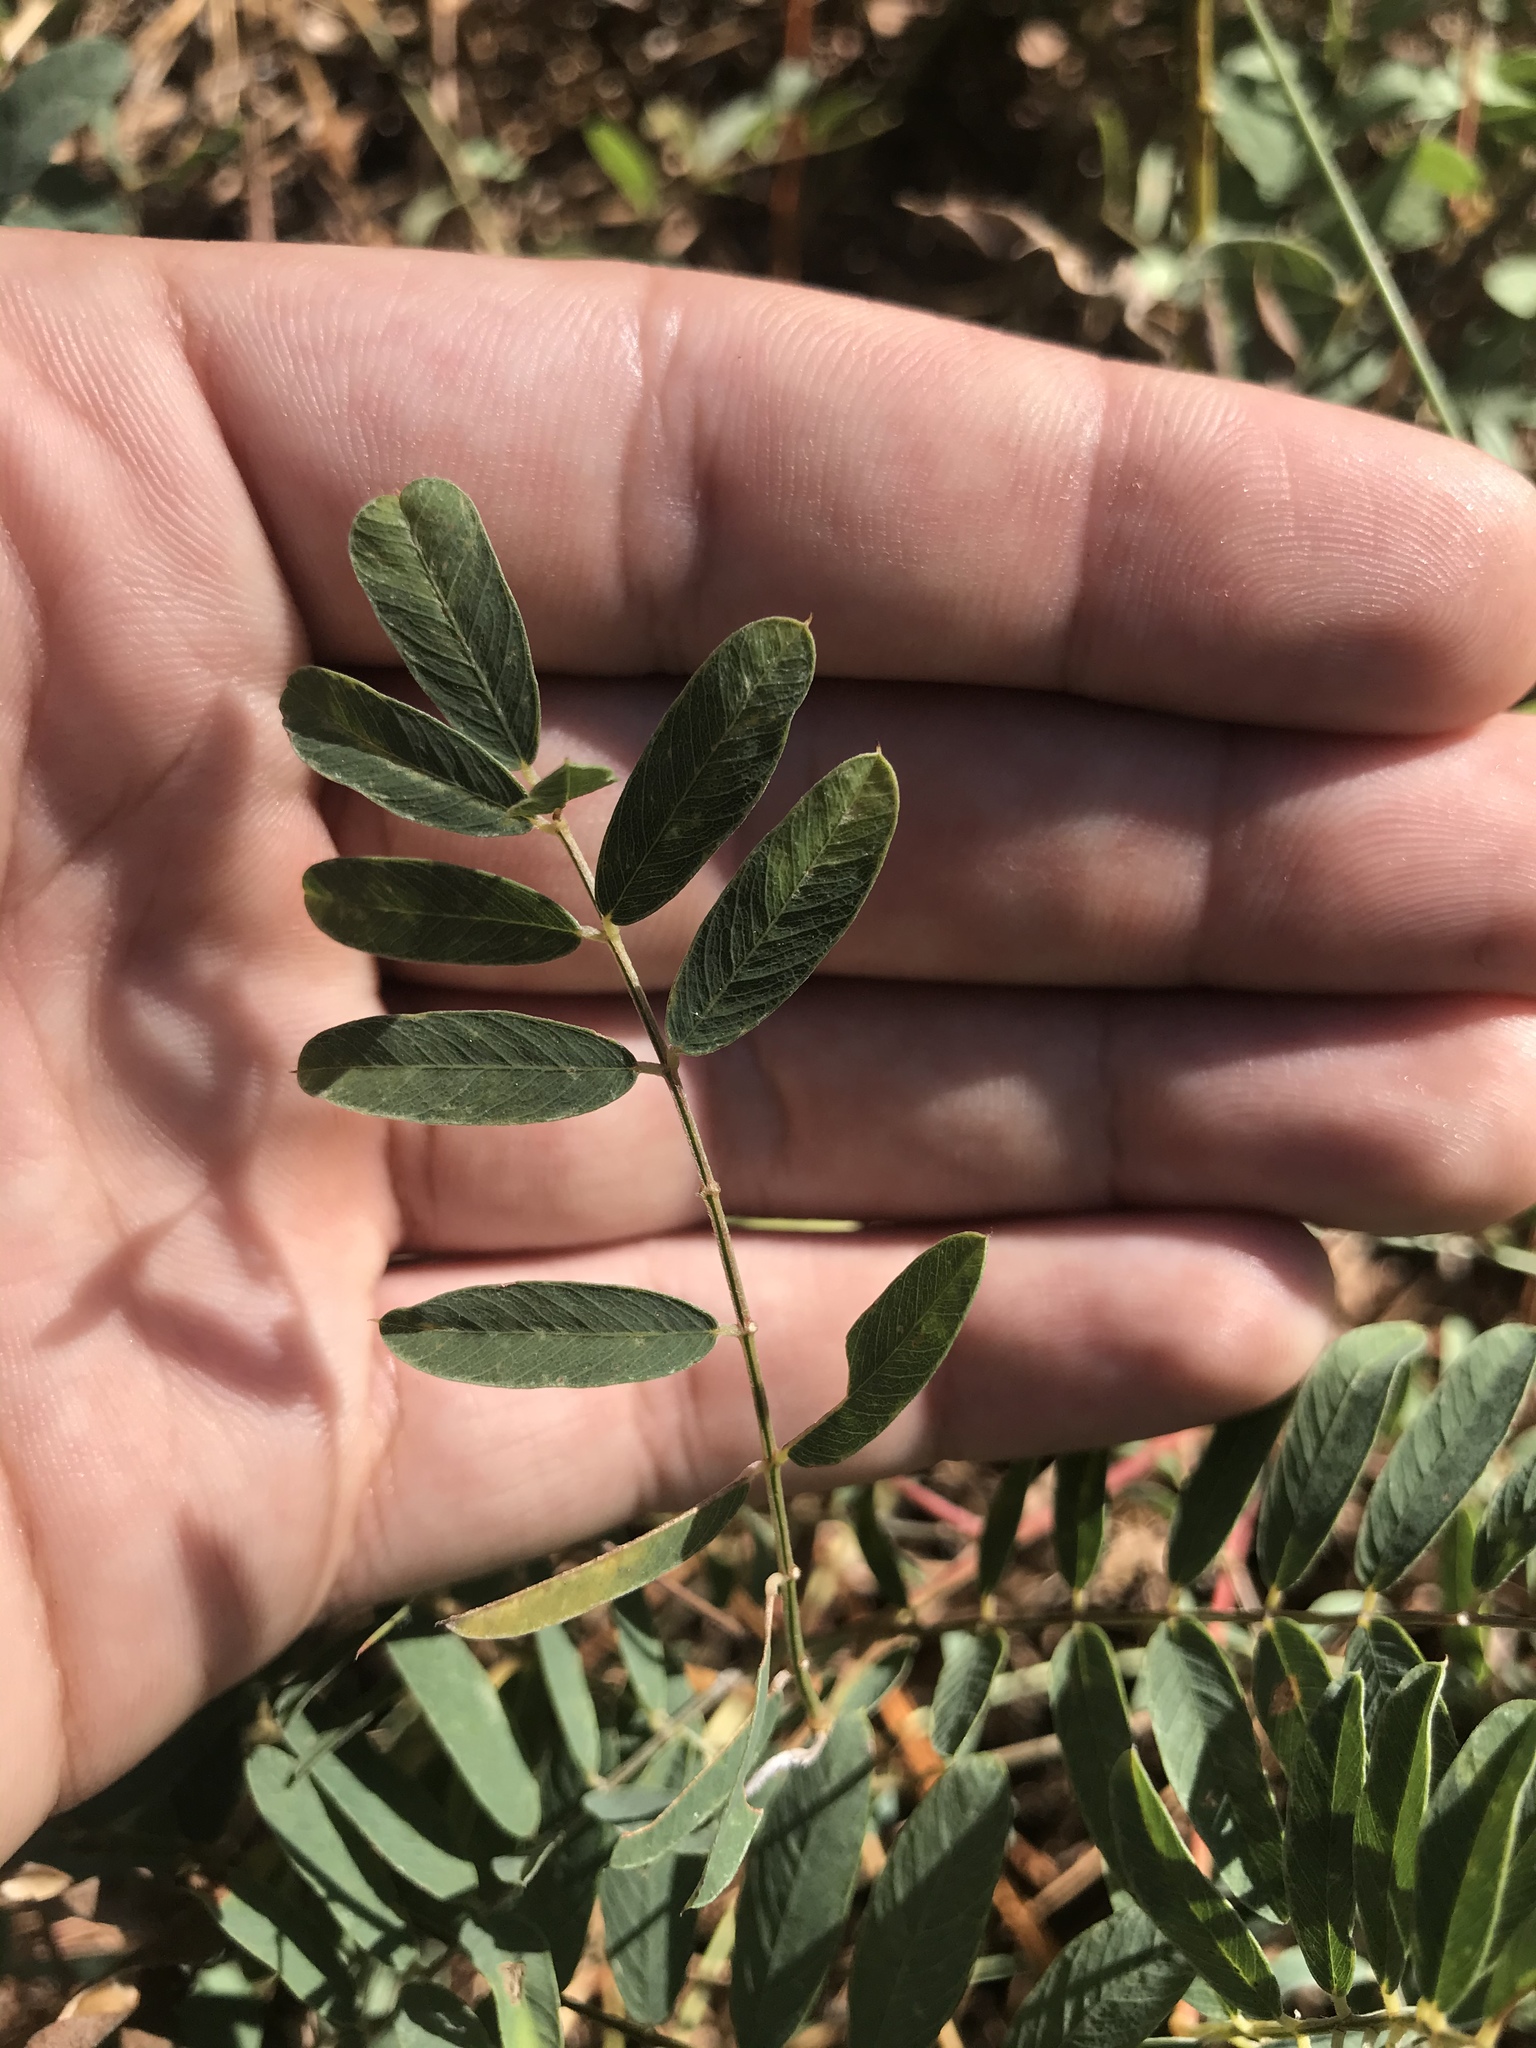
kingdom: Plantae
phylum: Tracheophyta
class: Magnoliopsida
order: Fabales
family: Fabaceae
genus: Tephrosia
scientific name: Tephrosia virginiana
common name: Rabbit-pea
